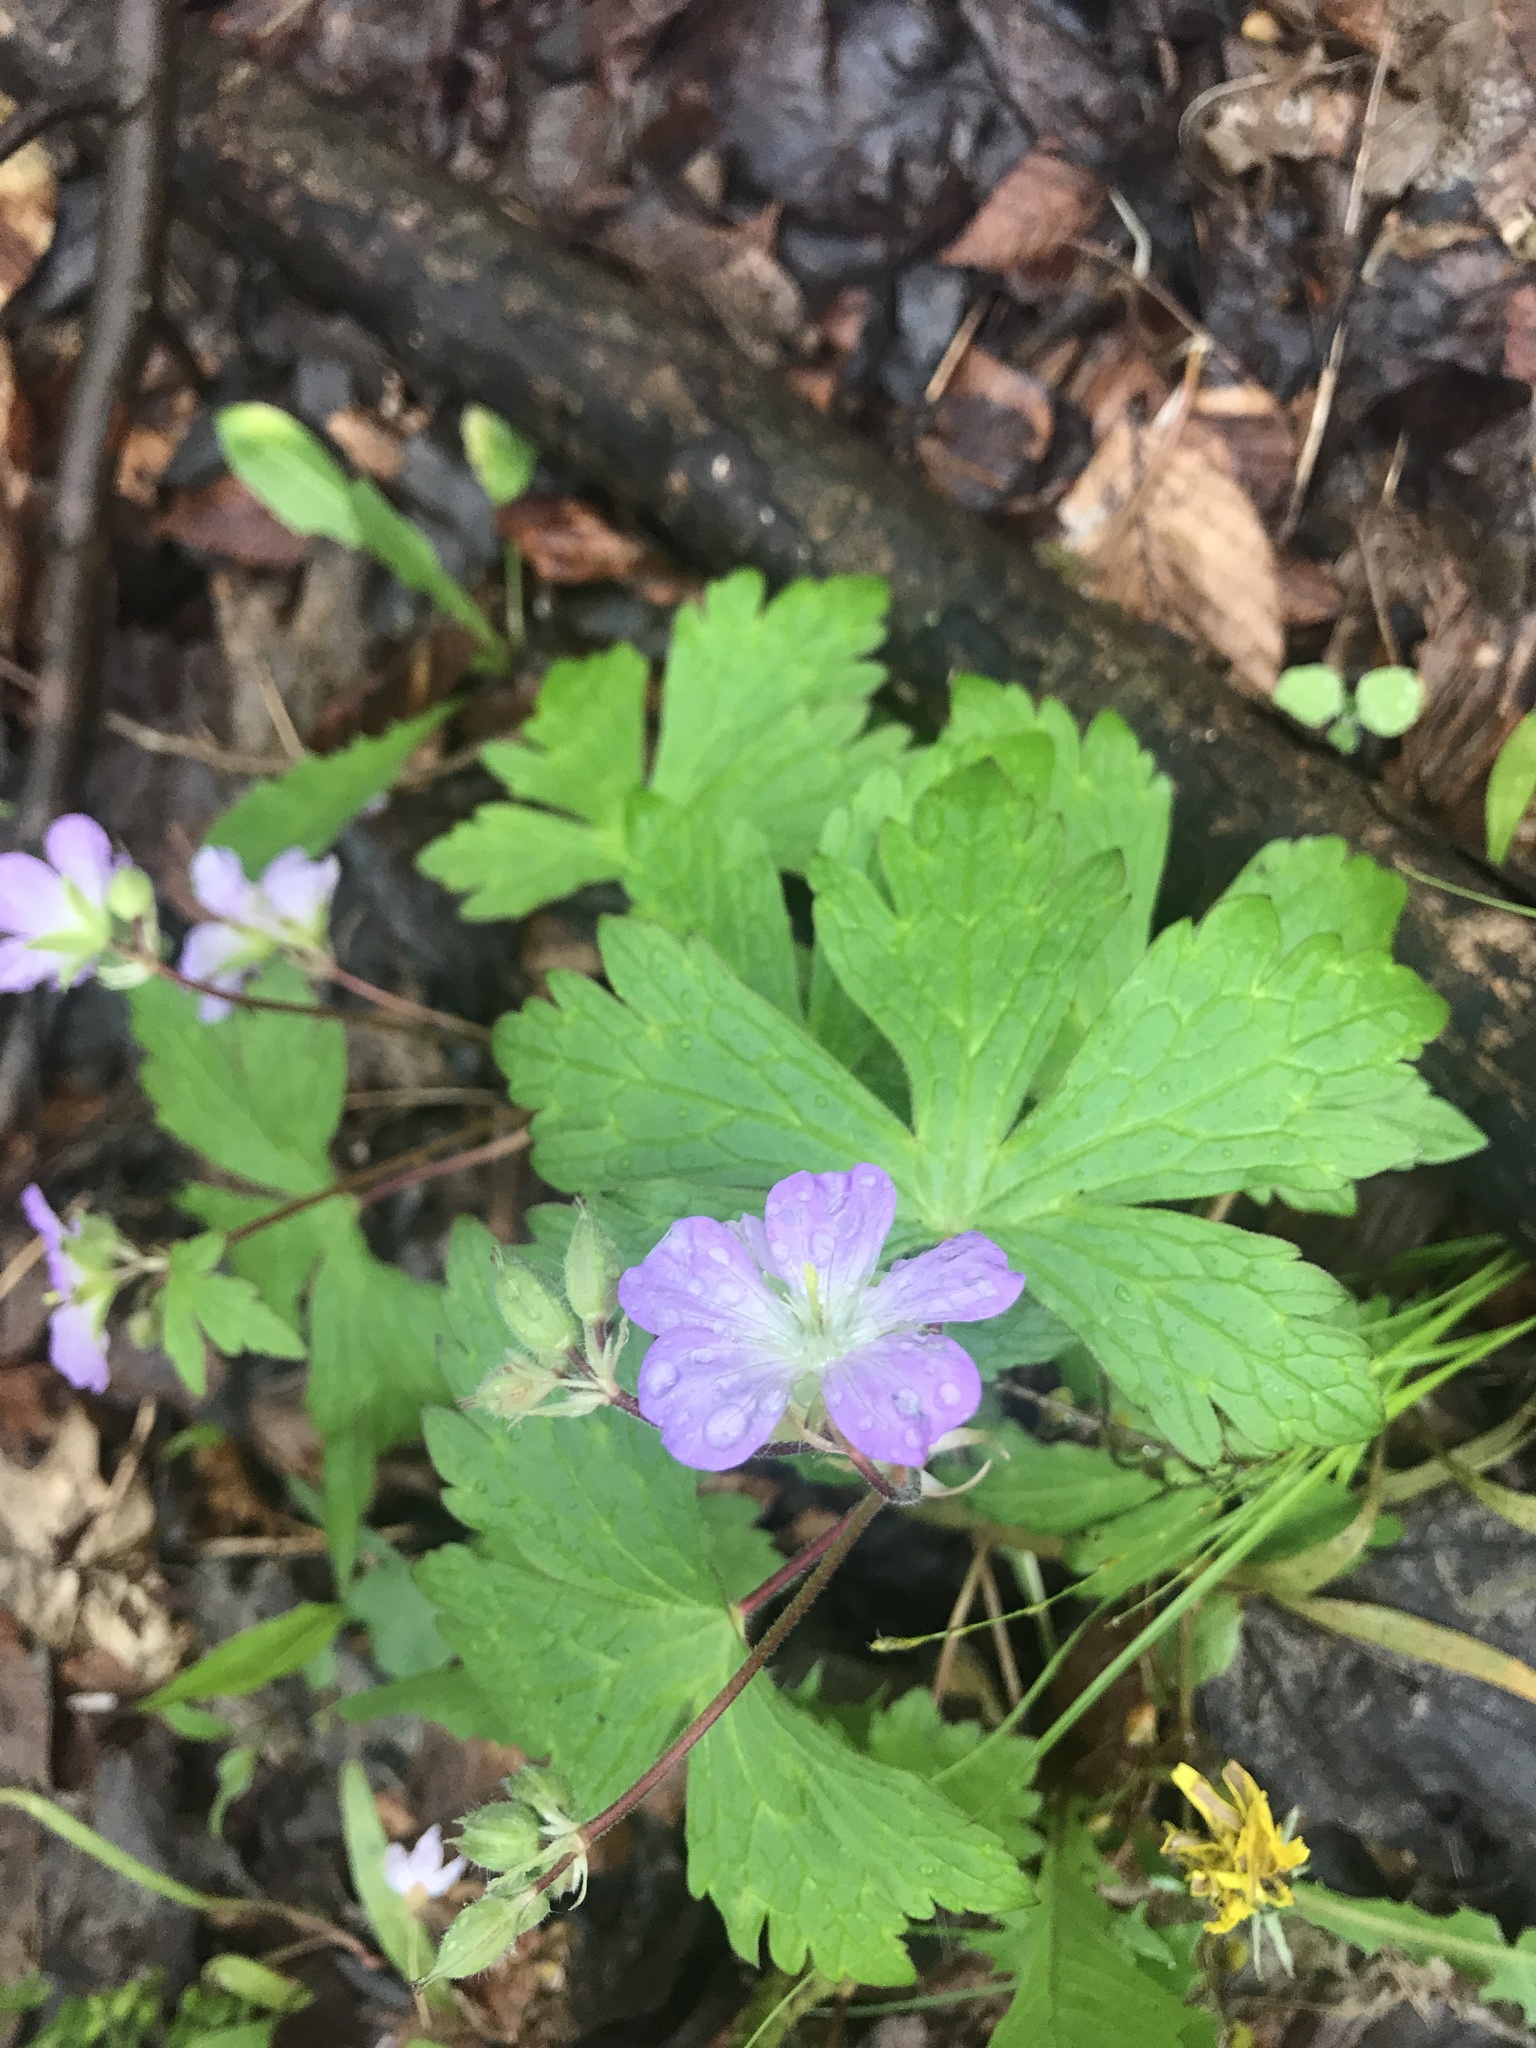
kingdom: Plantae
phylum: Tracheophyta
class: Magnoliopsida
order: Geraniales
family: Geraniaceae
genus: Geranium
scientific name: Geranium maculatum
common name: Spotted geranium
